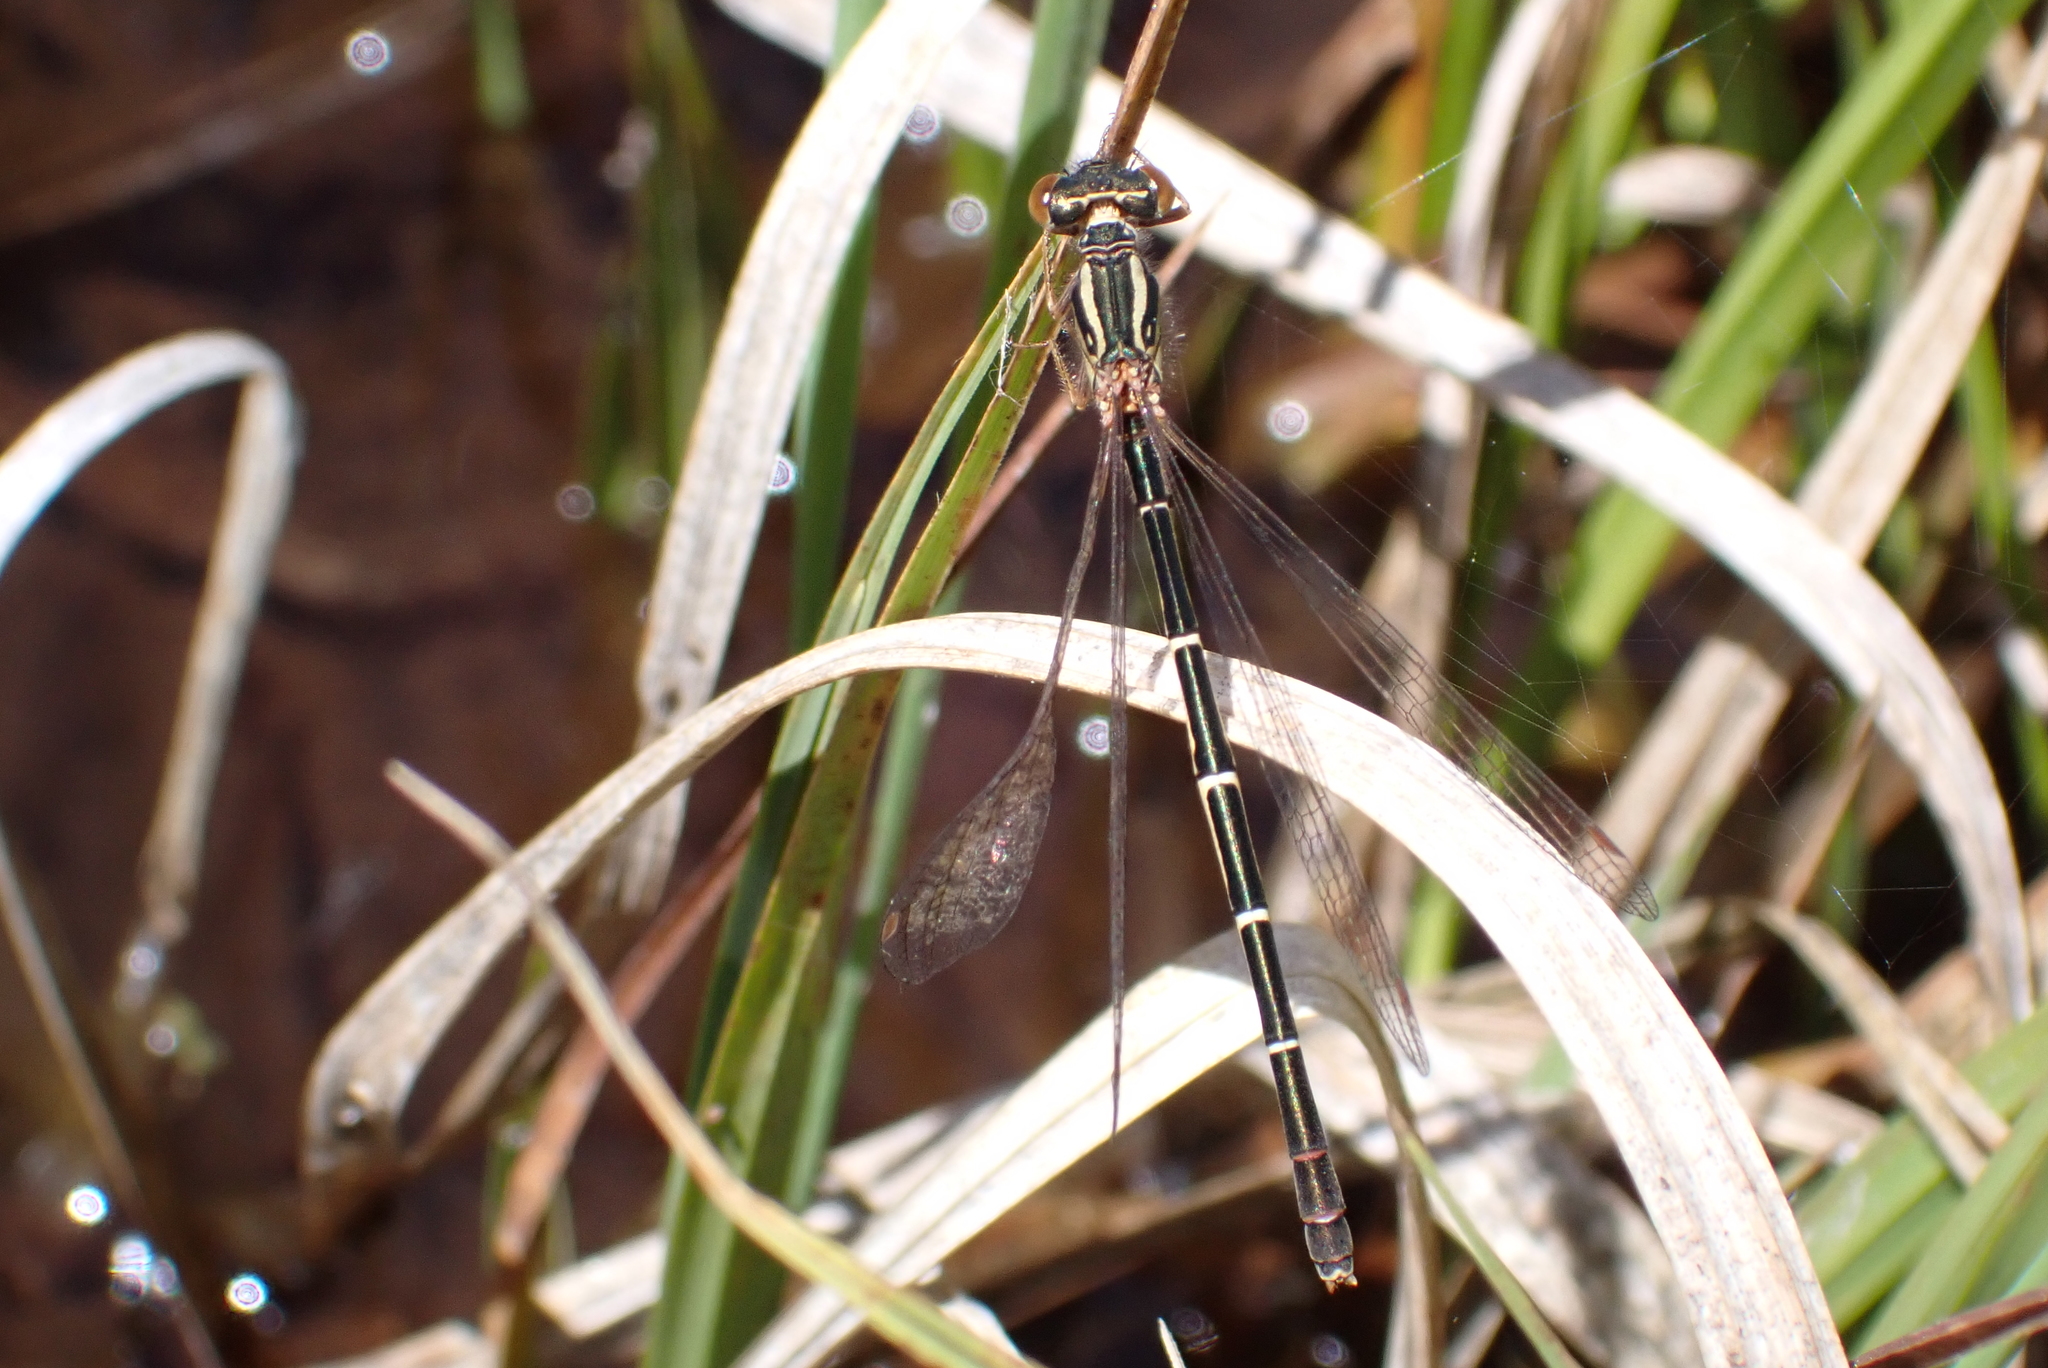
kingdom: Animalia
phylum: Arthropoda
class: Insecta
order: Odonata
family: Coenagrionidae
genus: Xanthocnemis
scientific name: Xanthocnemis zealandica
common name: Common redcoat damselfly
